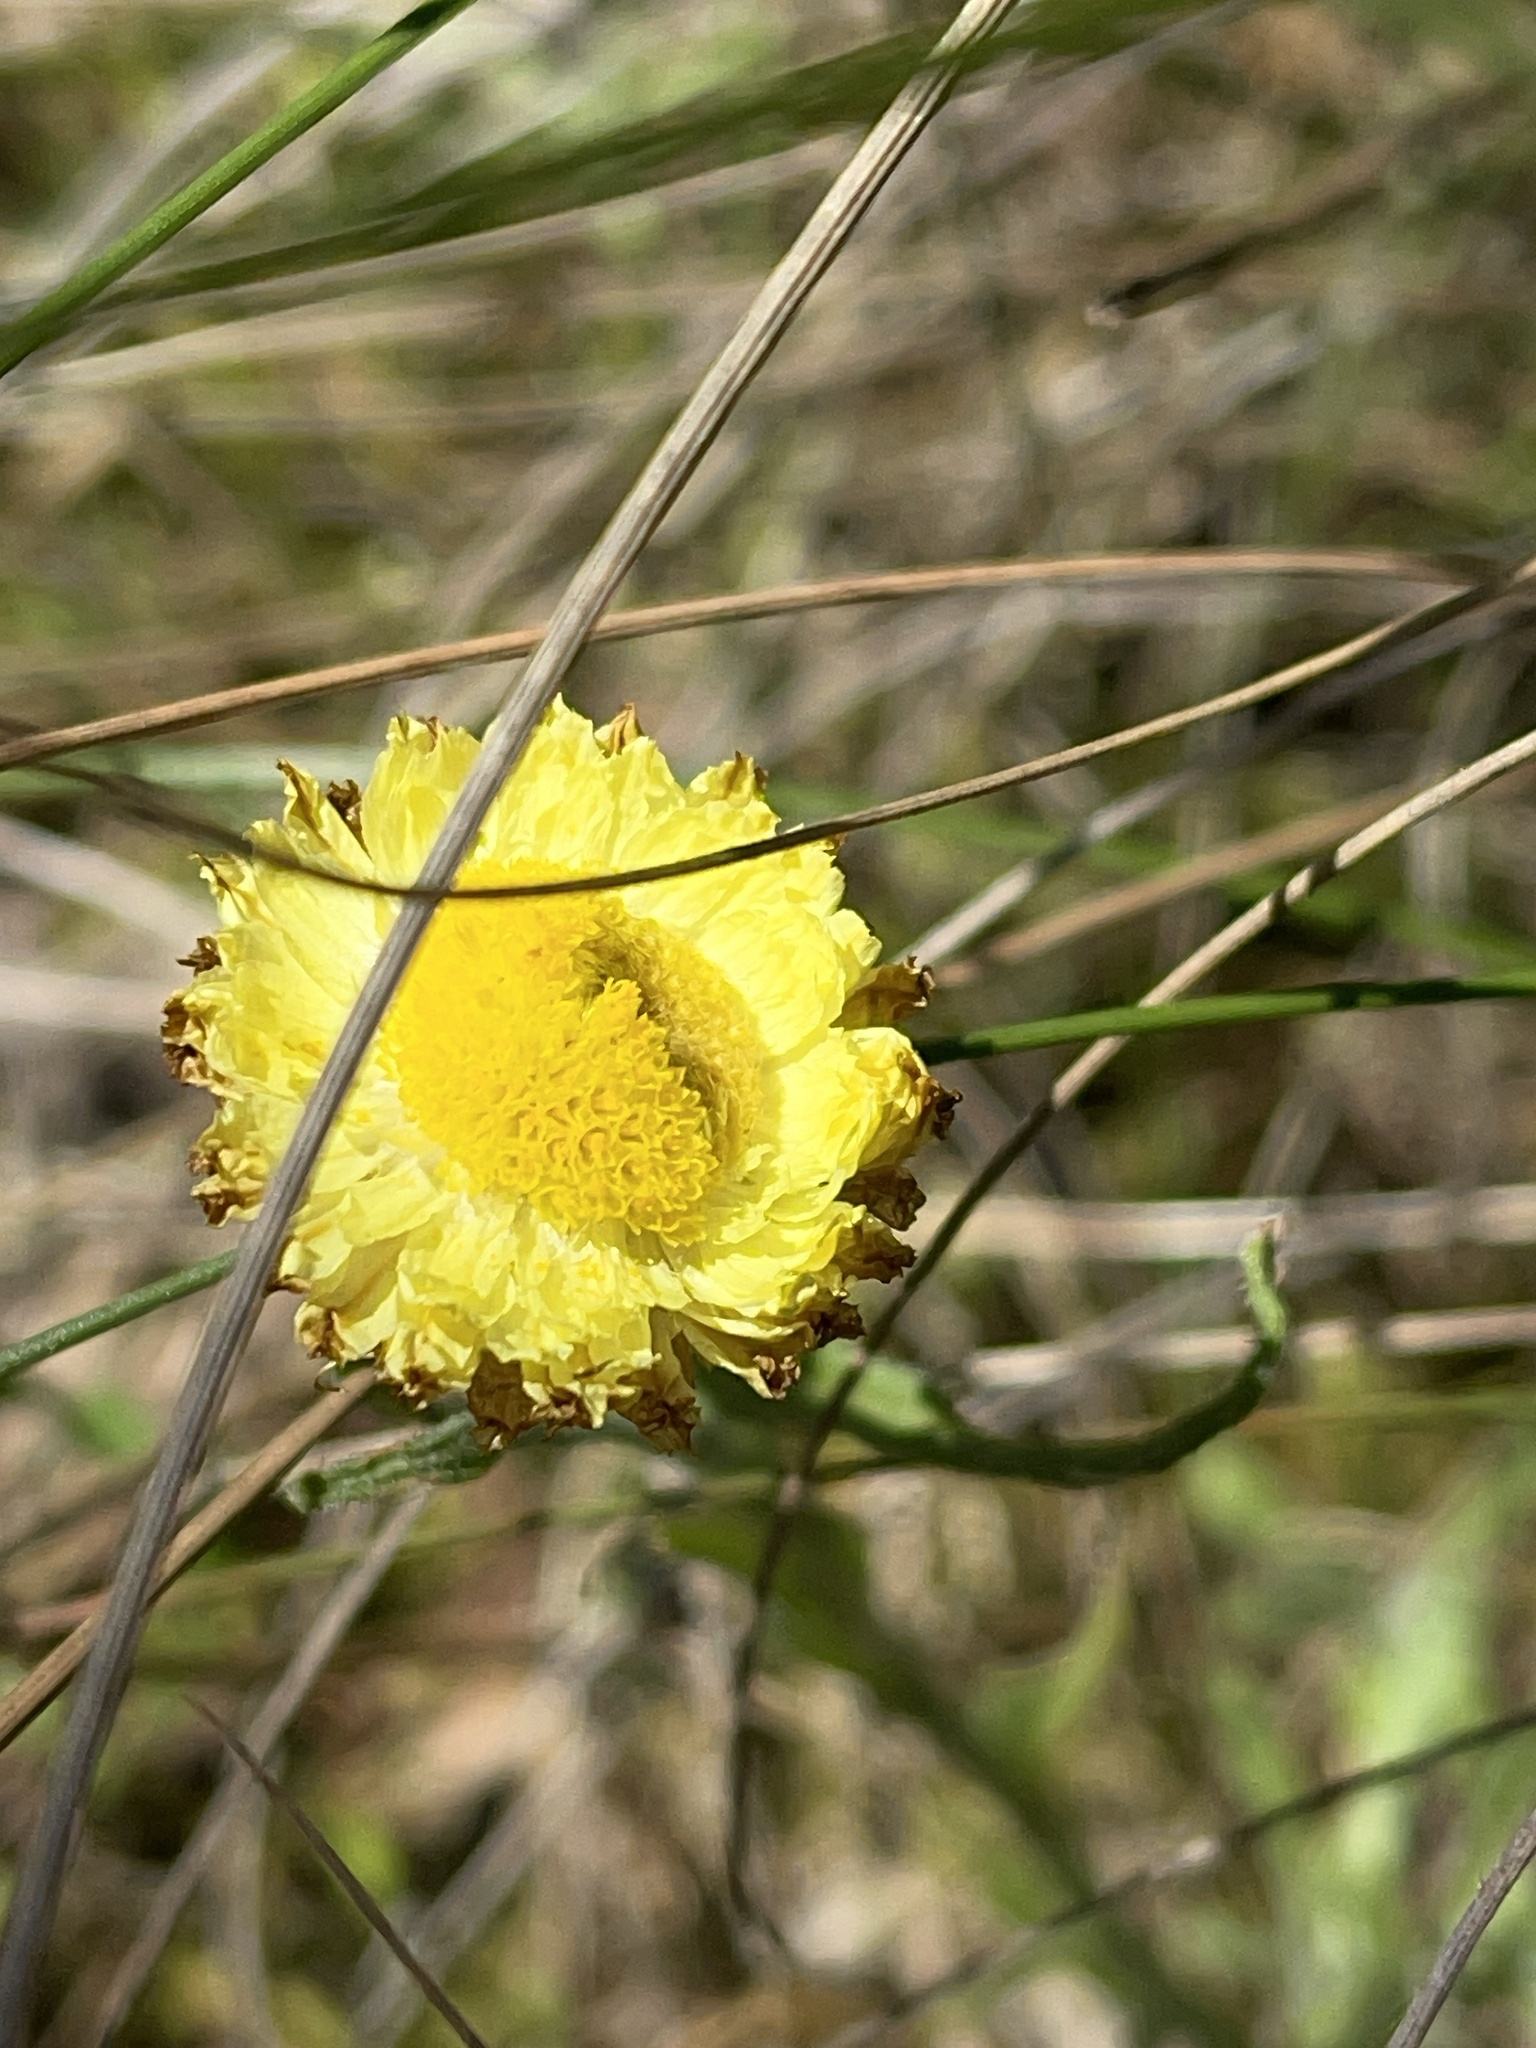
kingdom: Plantae
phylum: Tracheophyta
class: Magnoliopsida
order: Asterales
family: Asteraceae
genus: Coronidium
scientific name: Coronidium scorpioides
